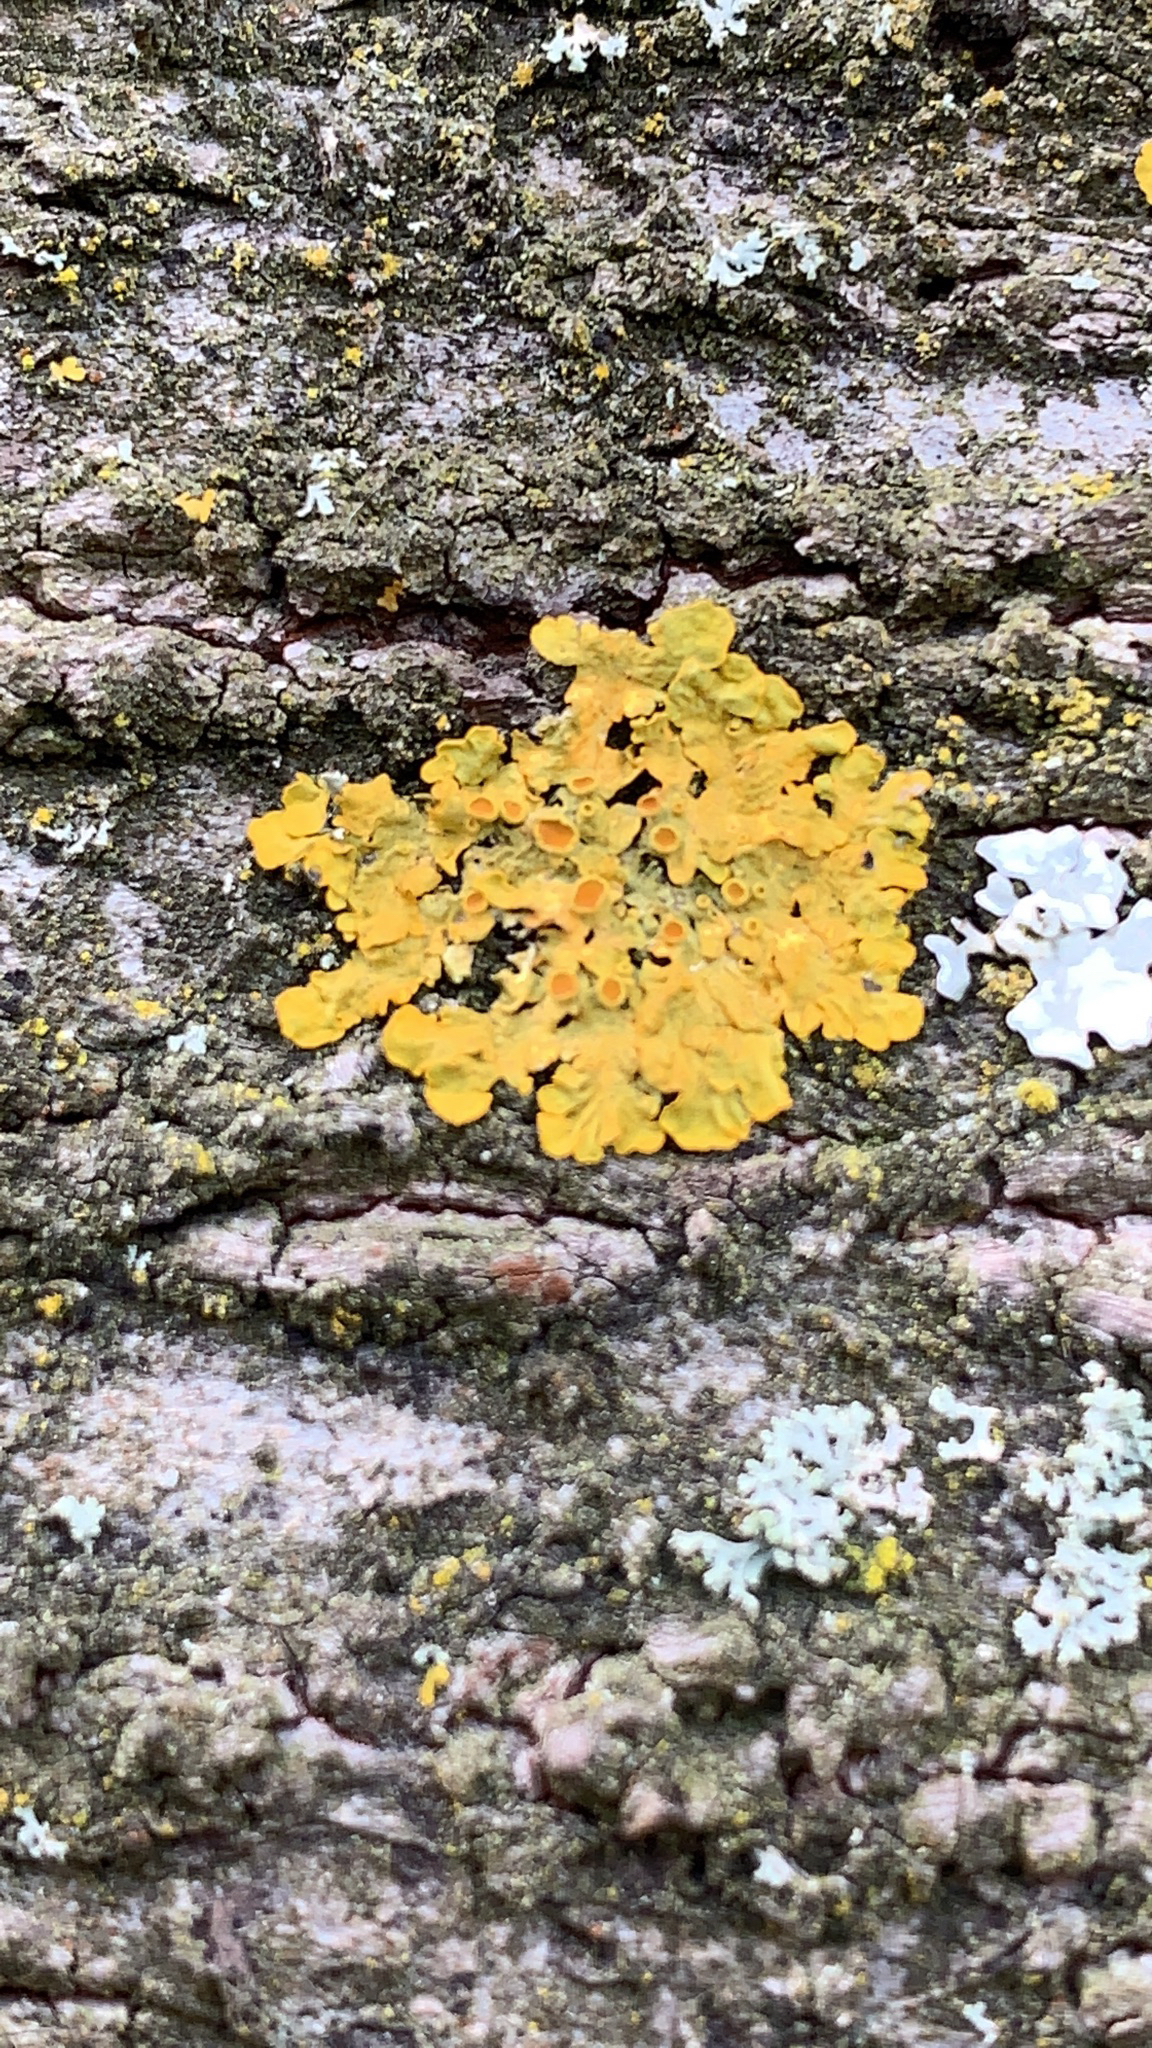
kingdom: Fungi
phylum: Ascomycota
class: Lecanoromycetes
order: Teloschistales
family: Teloschistaceae
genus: Xanthoria
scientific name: Xanthoria parietina
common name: Common orange lichen
